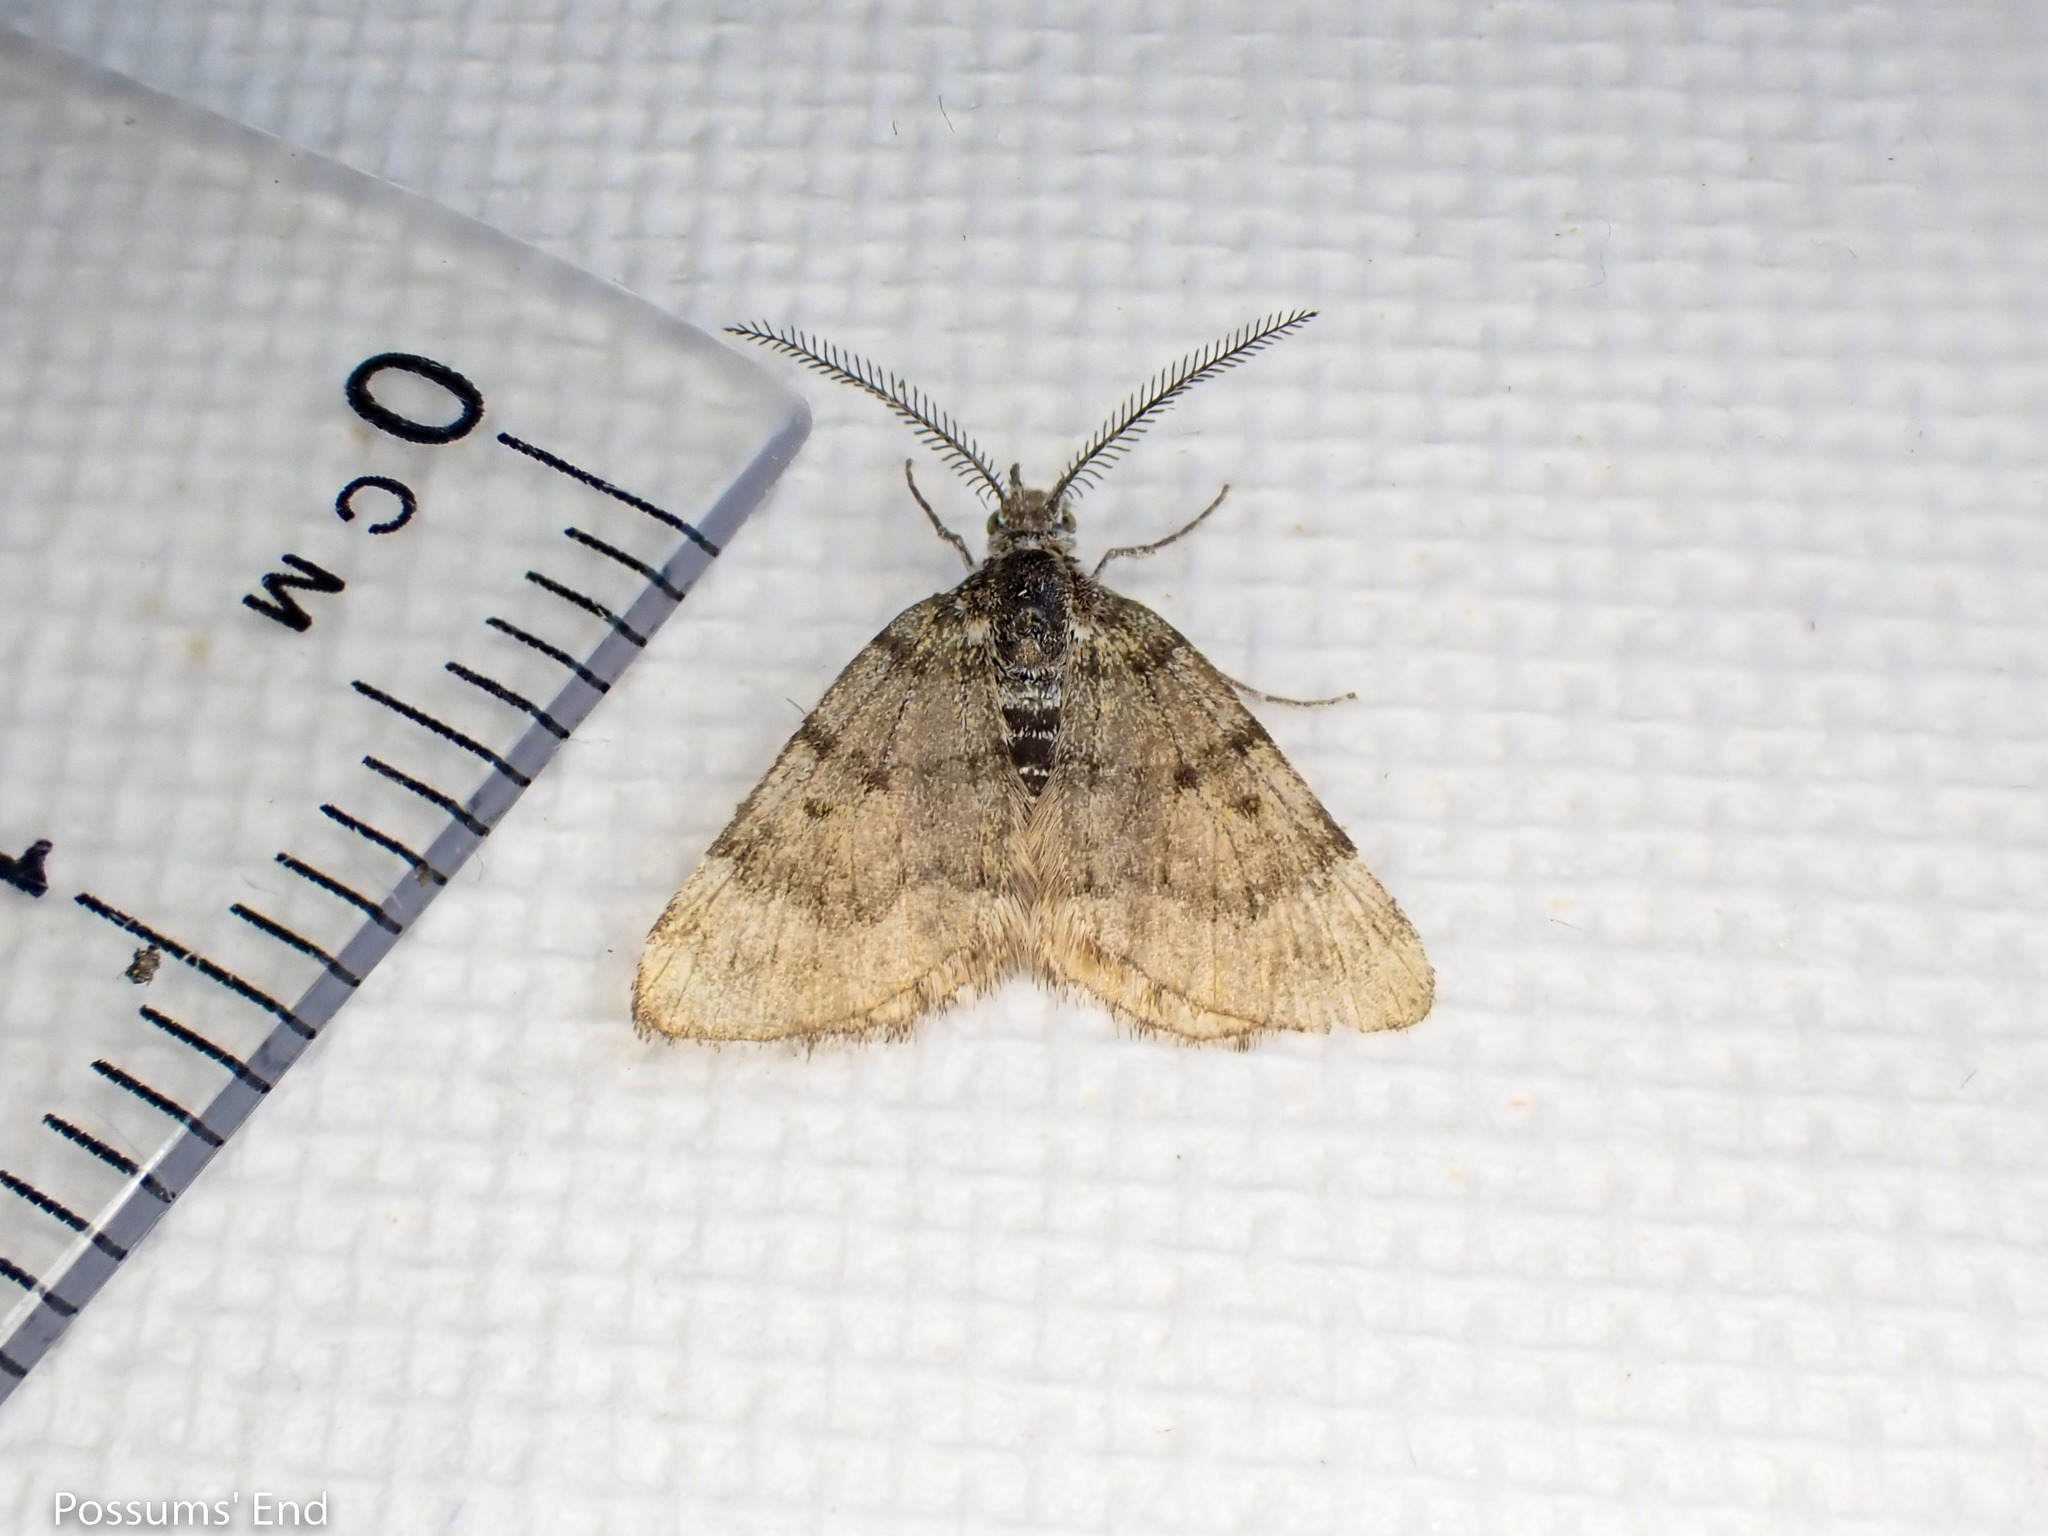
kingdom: Animalia
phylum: Arthropoda
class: Insecta
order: Lepidoptera
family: Geometridae
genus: Paranotoreas
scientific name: Paranotoreas fulva
